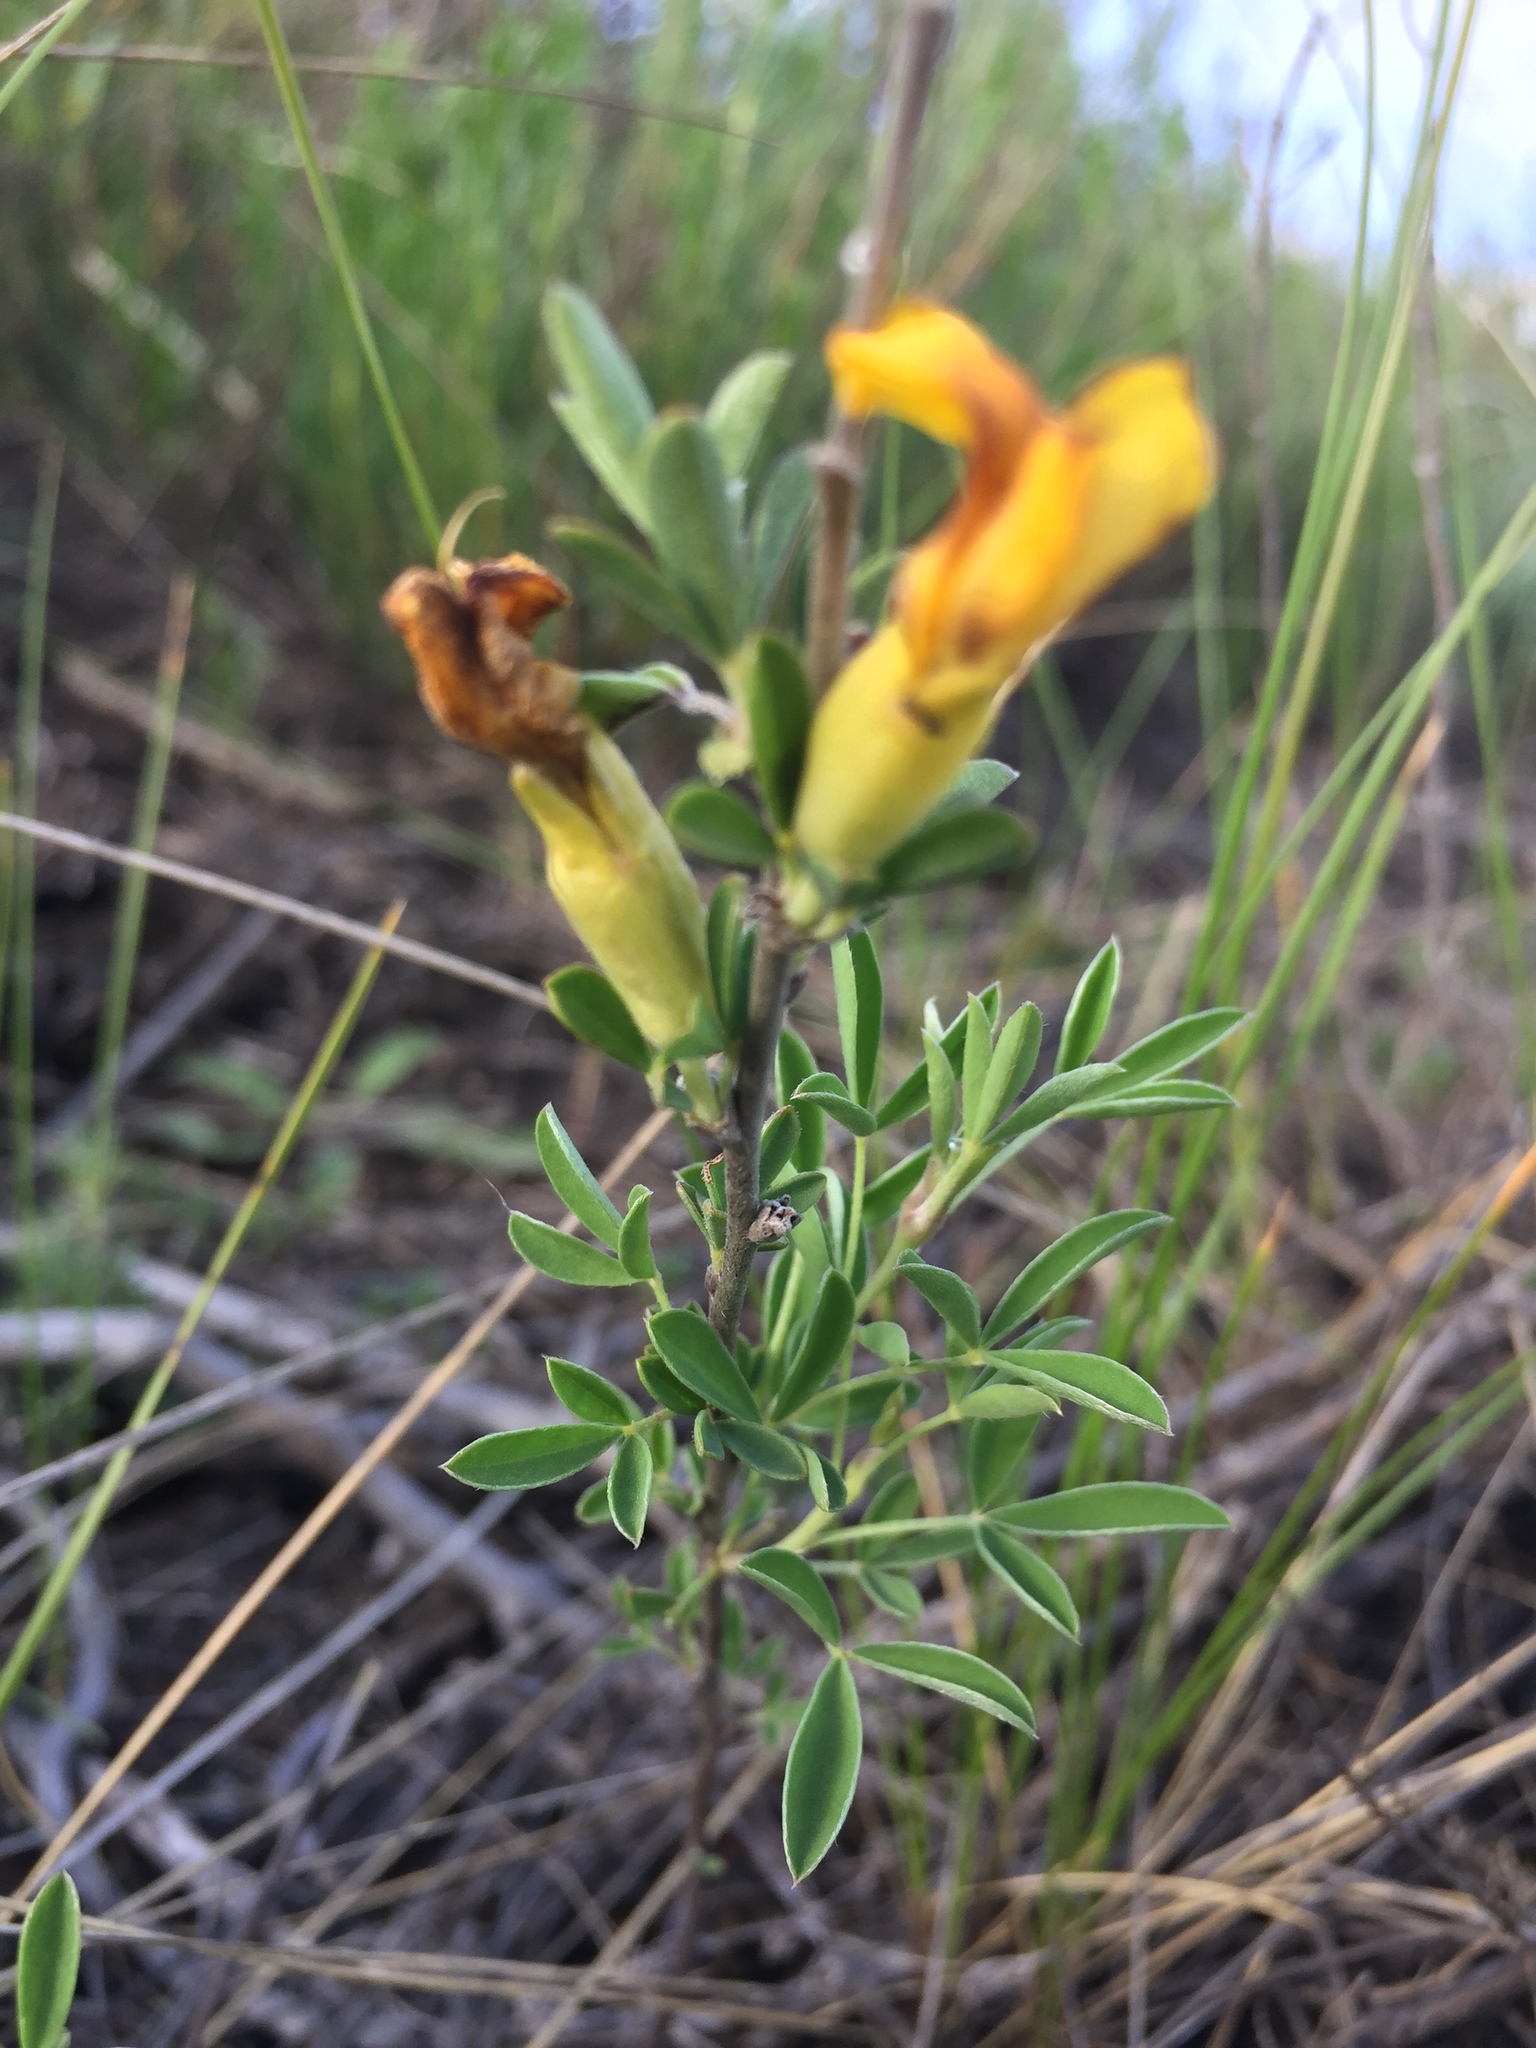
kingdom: Plantae
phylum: Tracheophyta
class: Magnoliopsida
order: Fabales
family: Fabaceae
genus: Chamaecytisus
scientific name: Chamaecytisus ruthenicus
